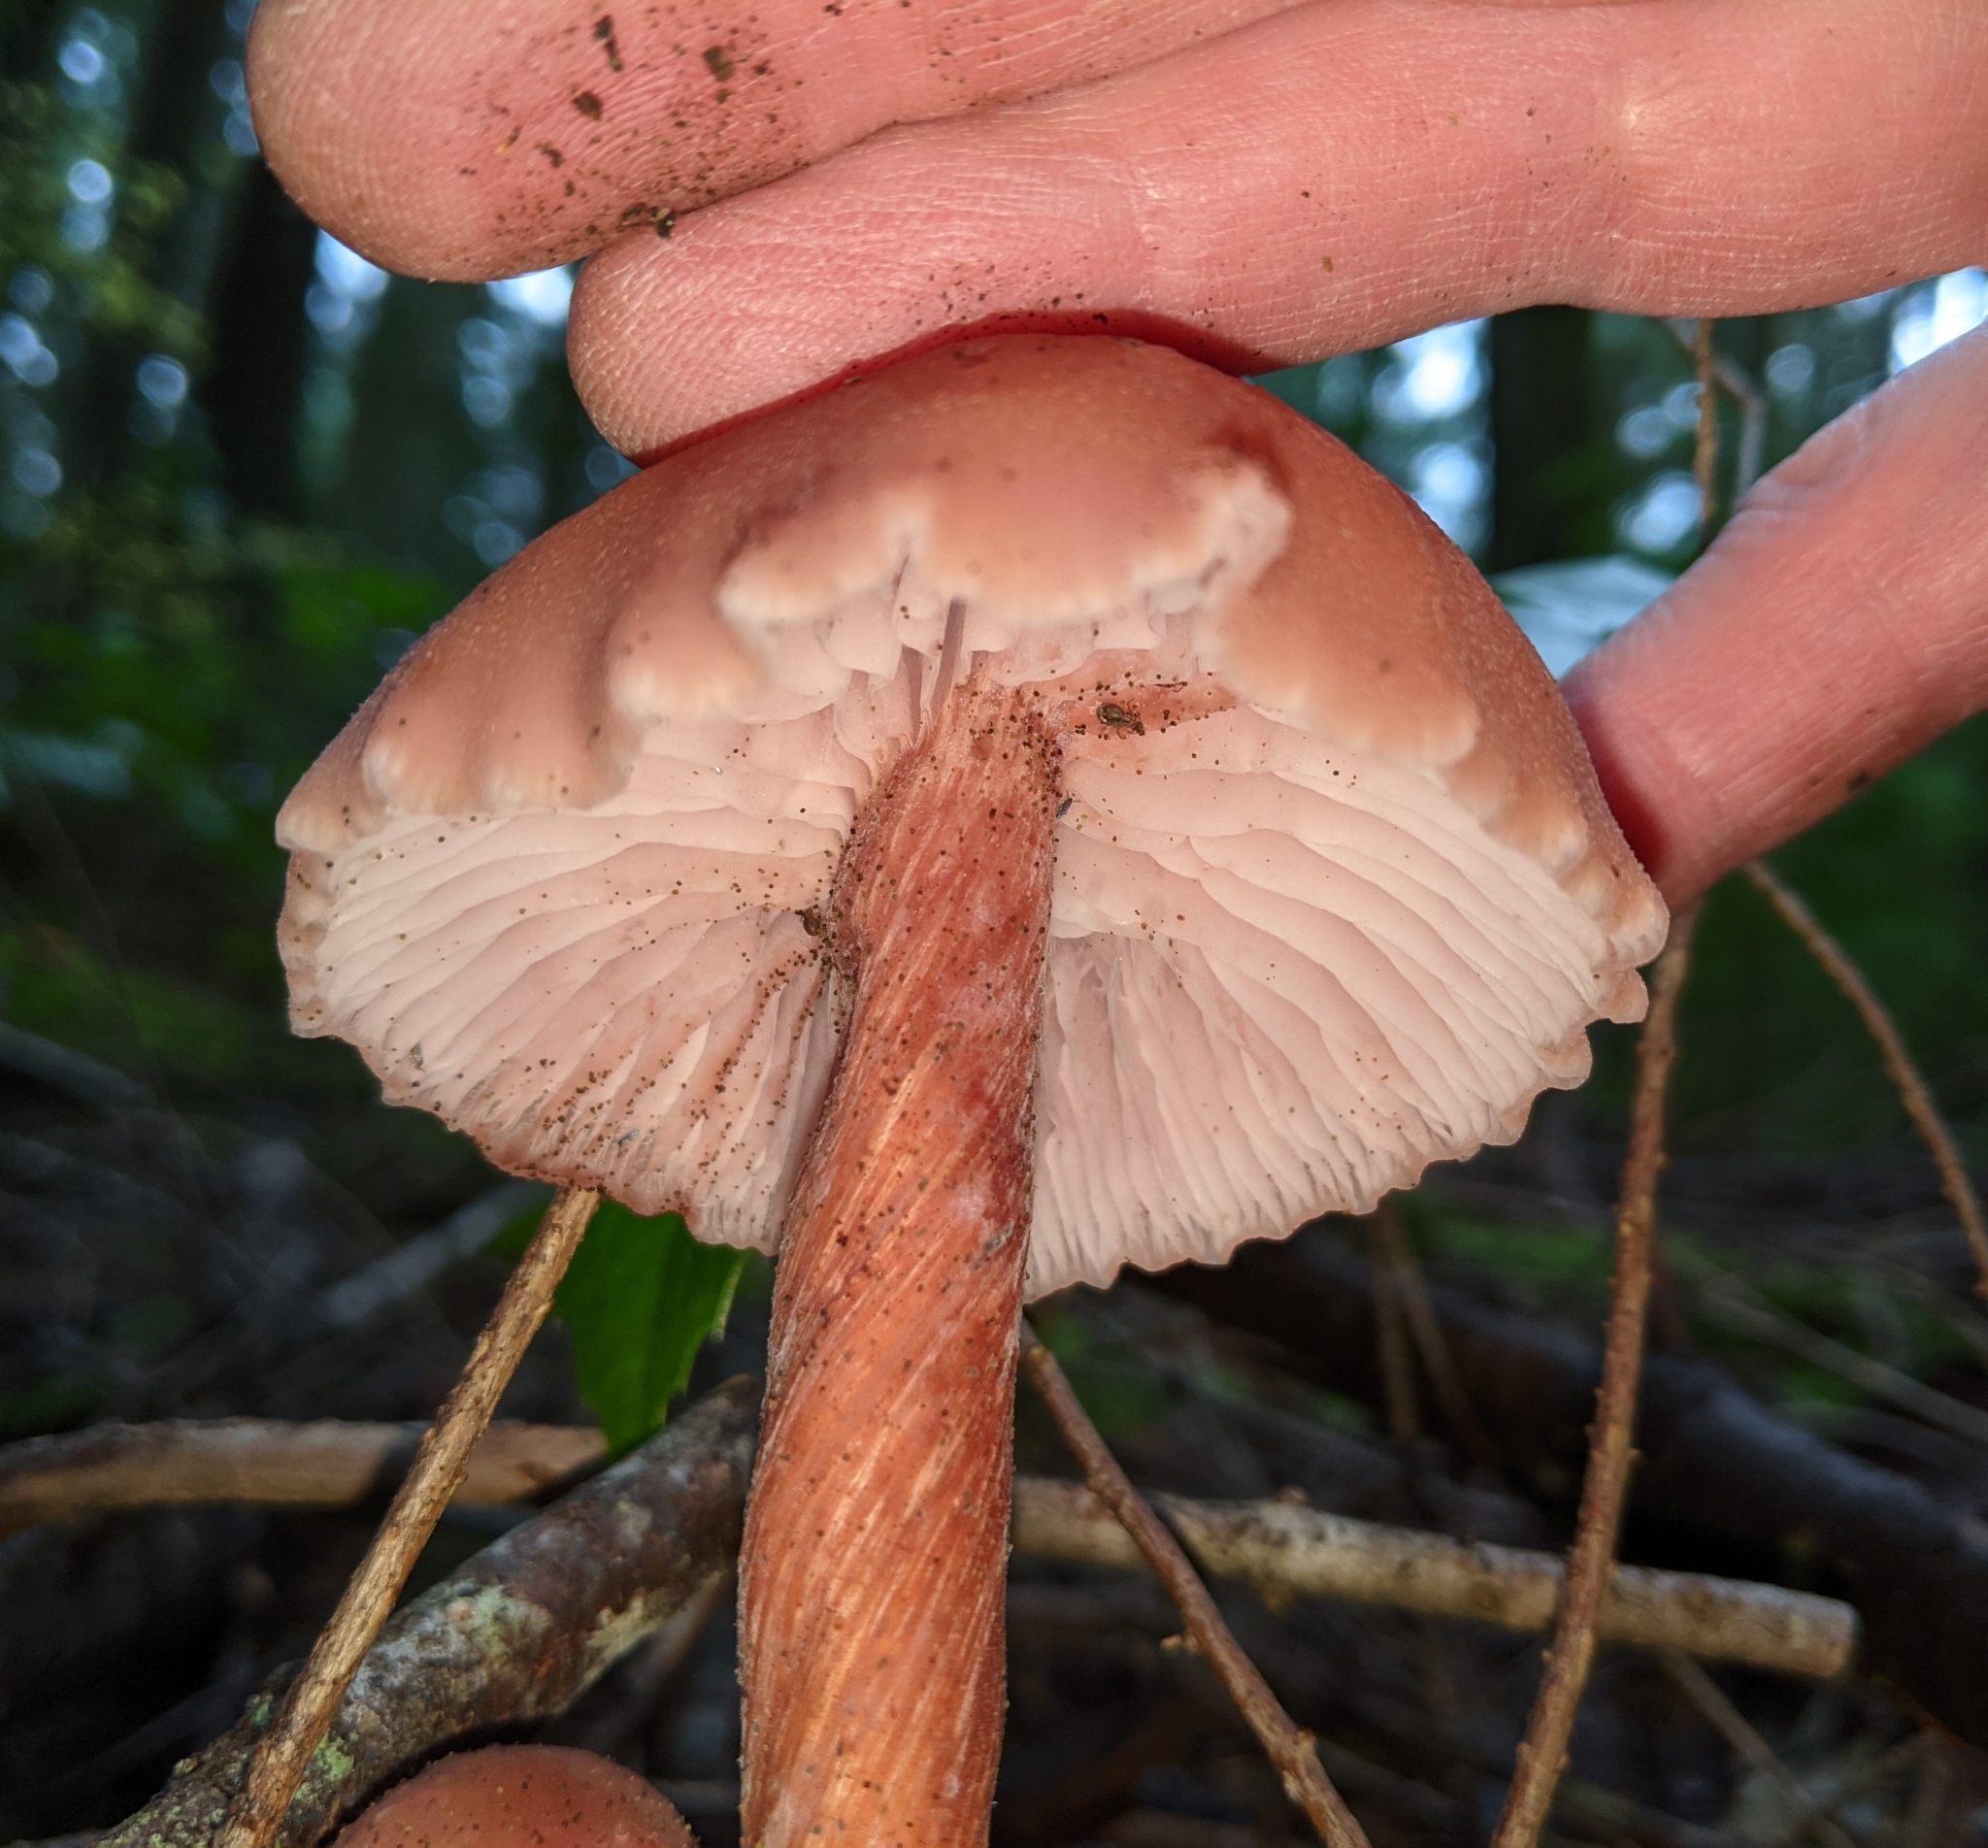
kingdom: Fungi
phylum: Basidiomycota
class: Agaricomycetes
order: Agaricales
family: Hydnangiaceae
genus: Laccaria
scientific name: Laccaria laccata
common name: Deceiver
